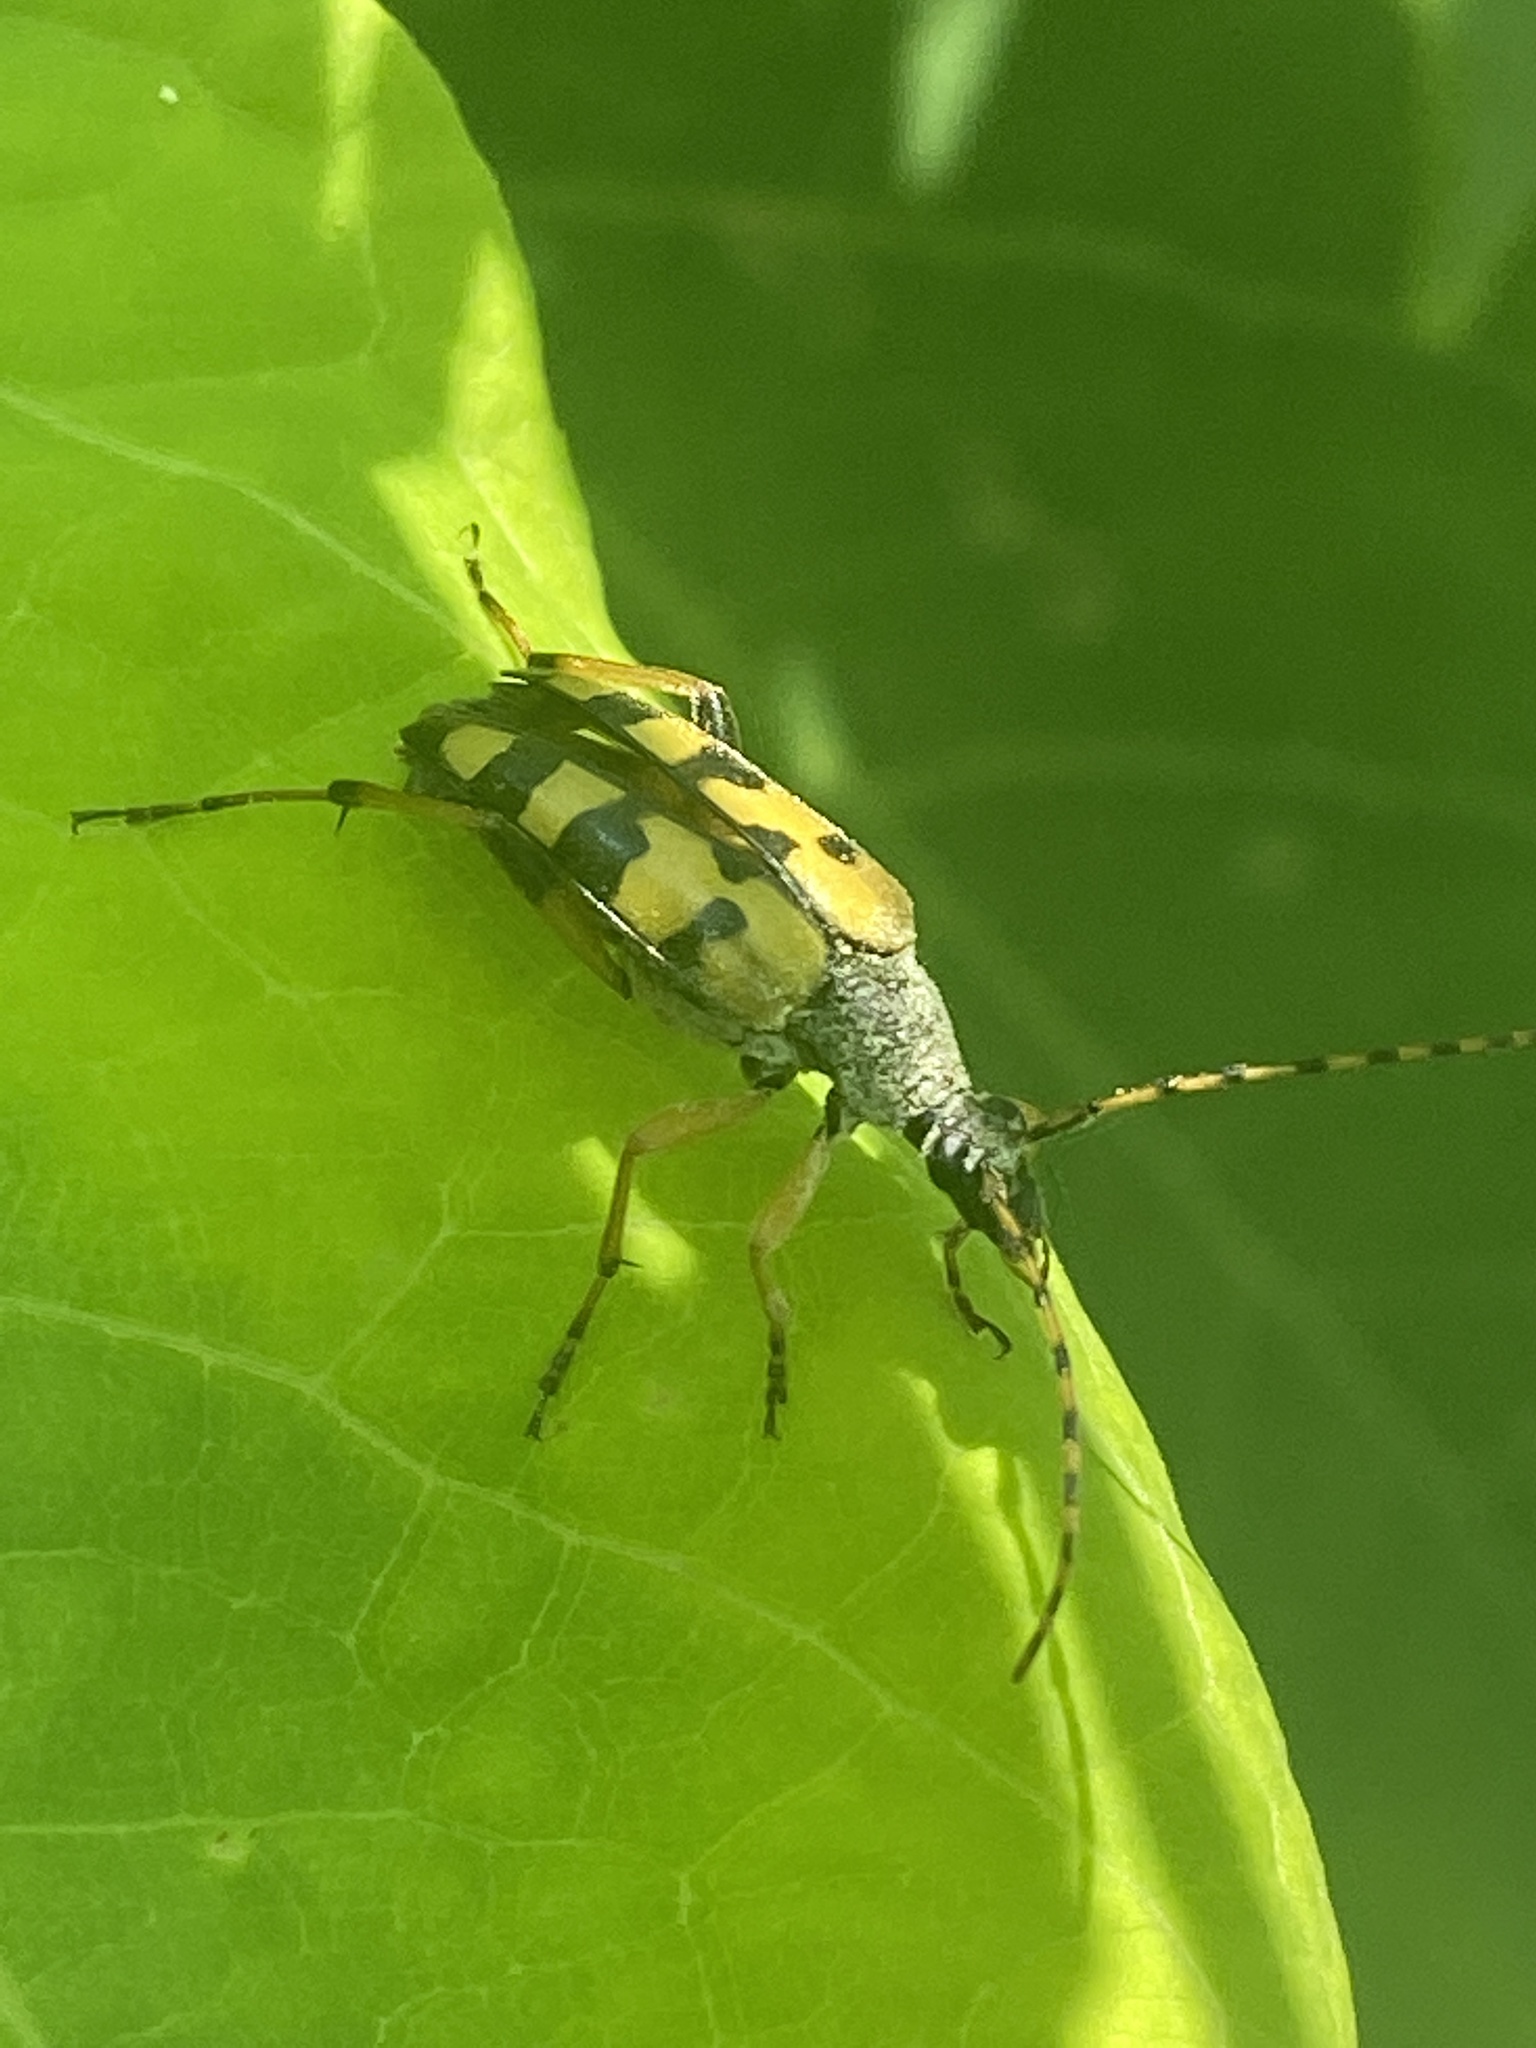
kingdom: Animalia
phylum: Arthropoda
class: Insecta
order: Coleoptera
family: Cerambycidae
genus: Rutpela
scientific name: Rutpela maculata
